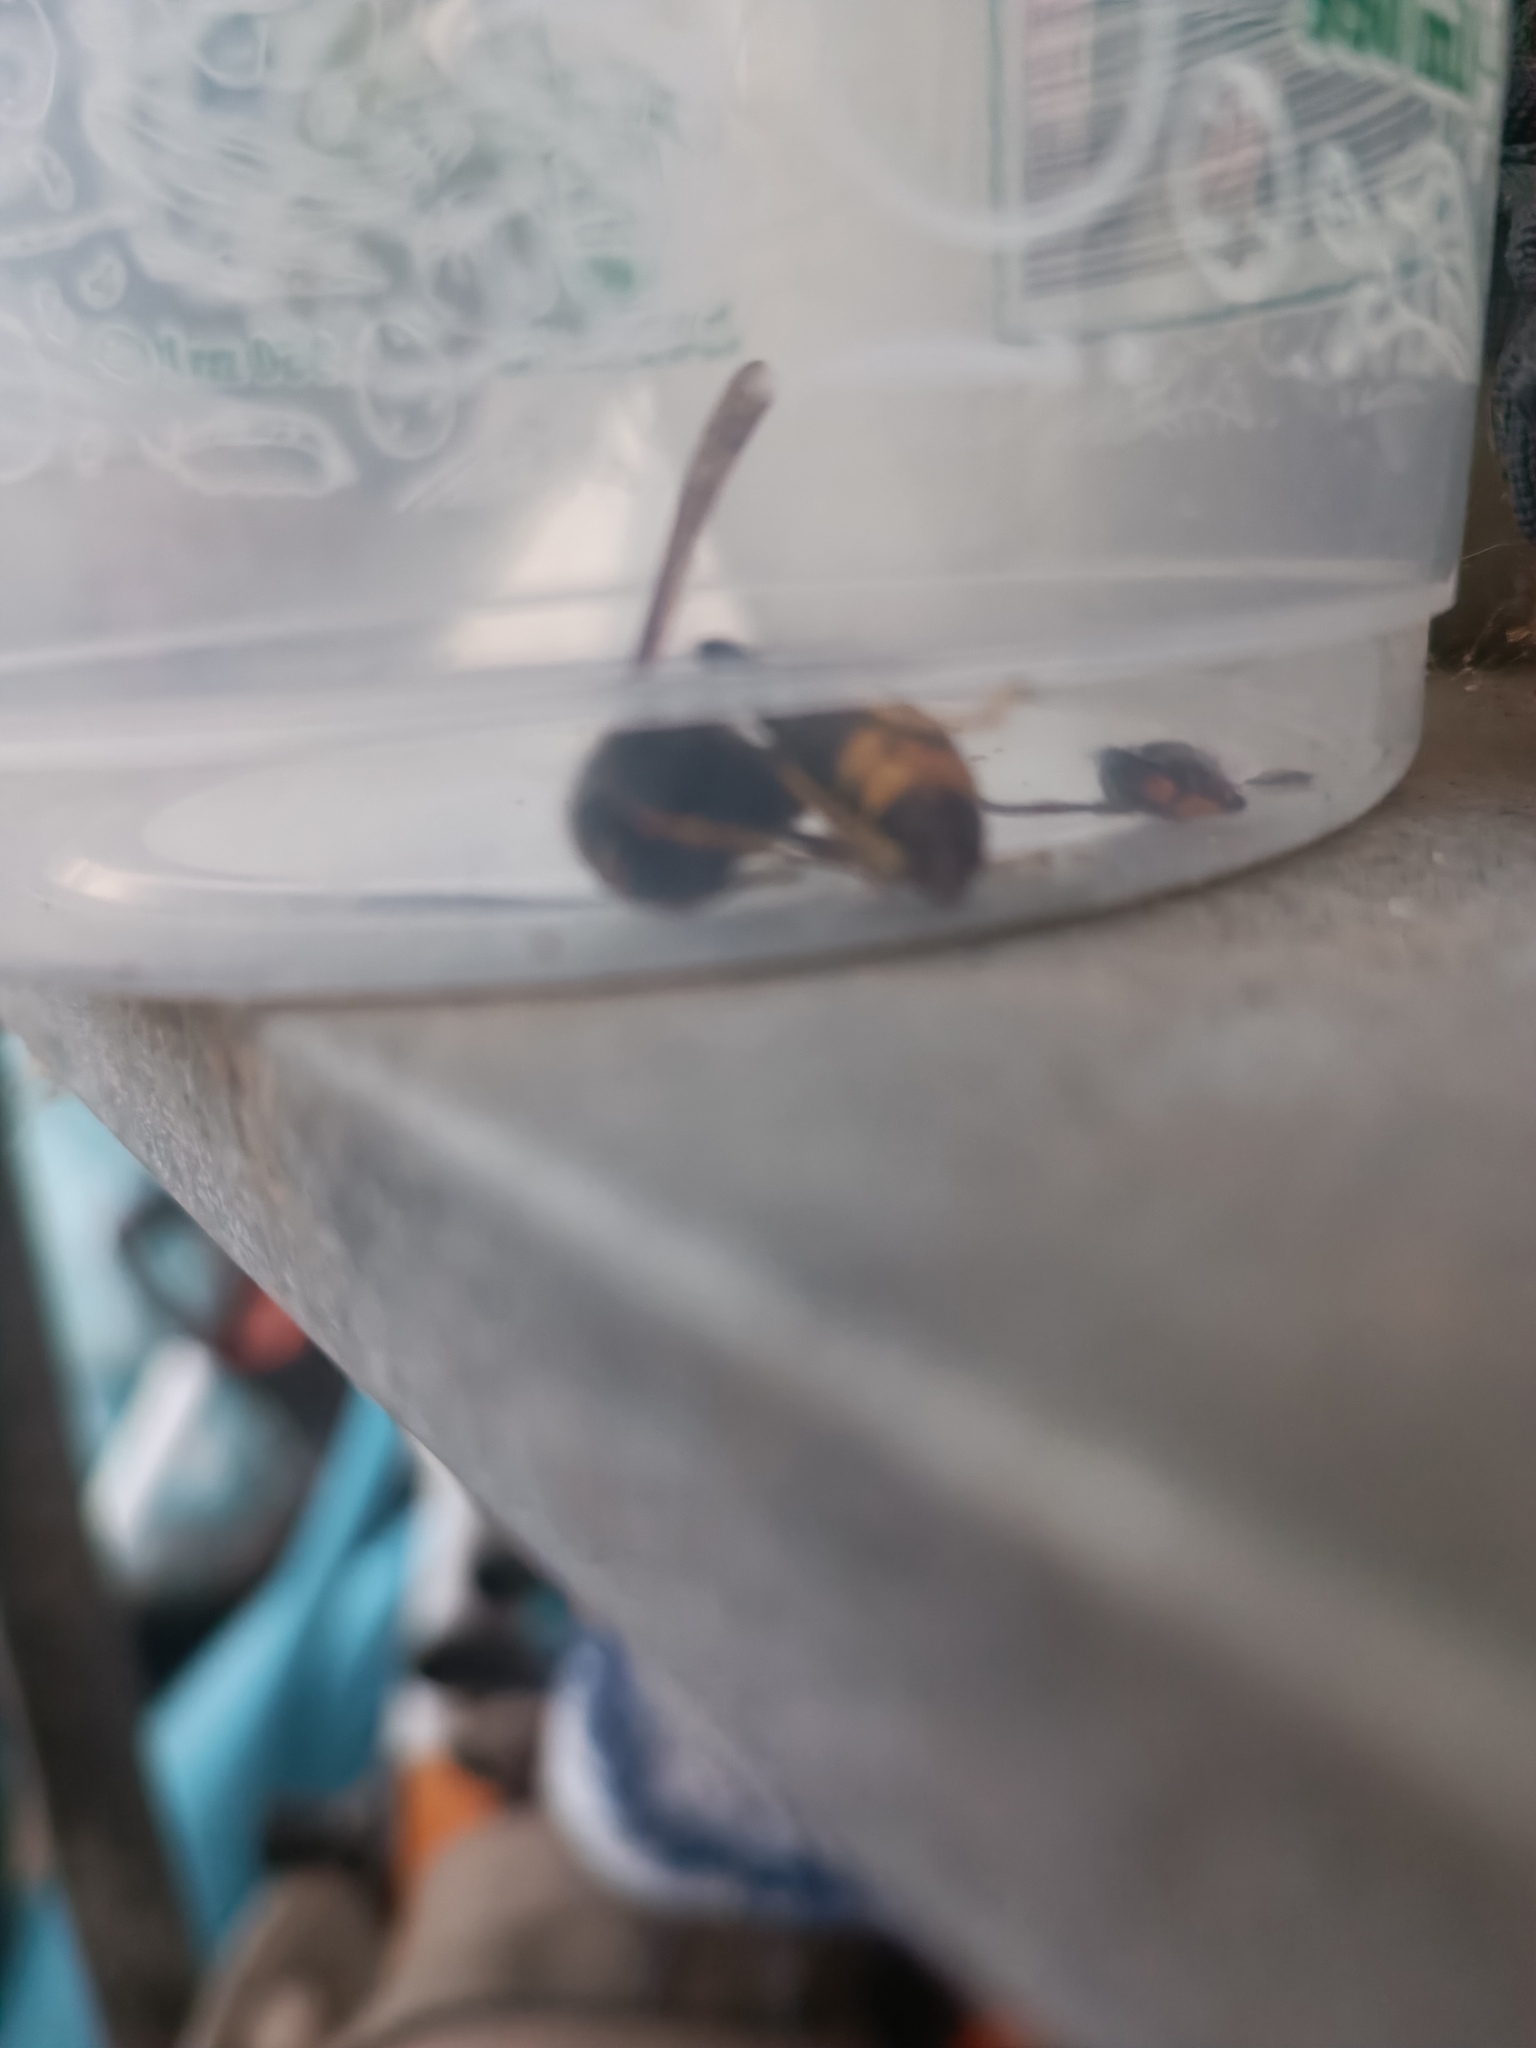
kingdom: Animalia
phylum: Arthropoda
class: Insecta
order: Hymenoptera
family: Vespidae
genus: Vespa
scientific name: Vespa velutina
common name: Asian hornet
